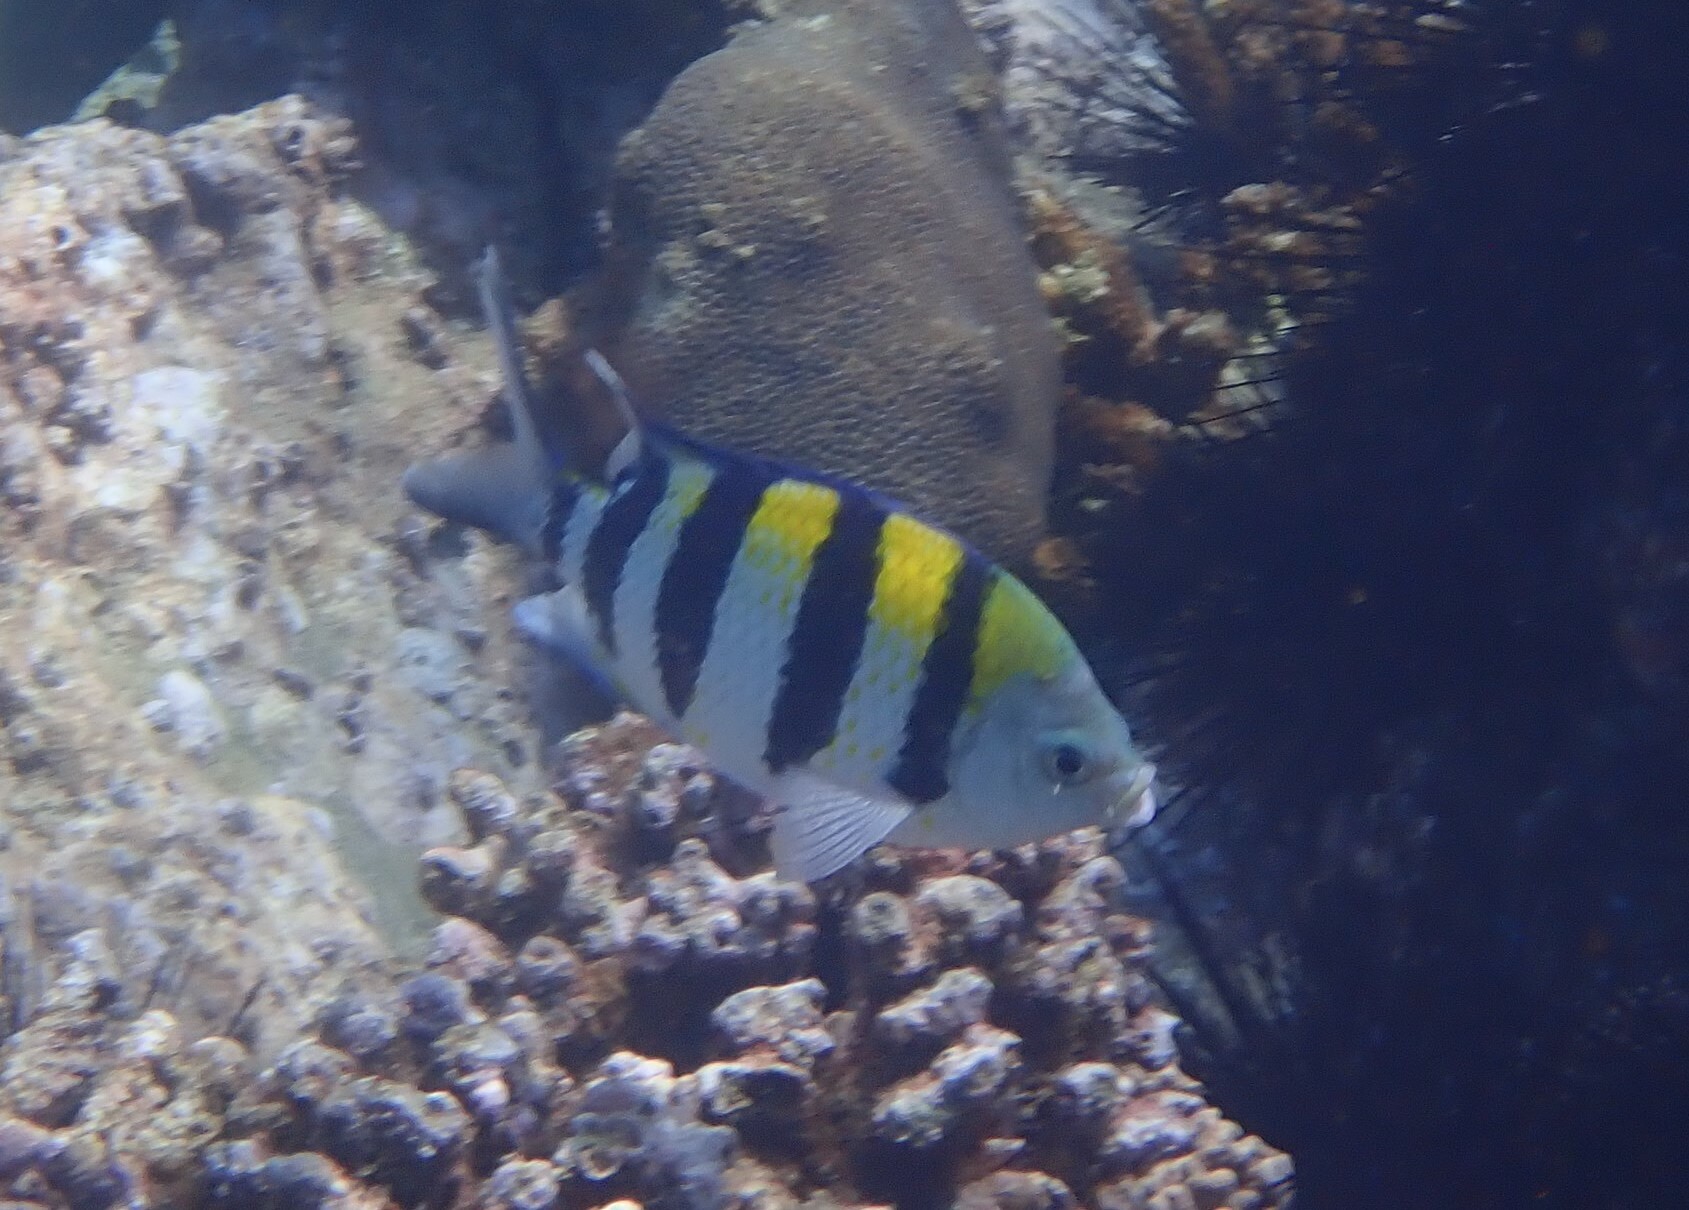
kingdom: Animalia
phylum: Chordata
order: Perciformes
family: Pomacentridae
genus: Abudefduf
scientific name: Abudefduf vaigiensis
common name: Indo-pacific sergeant
